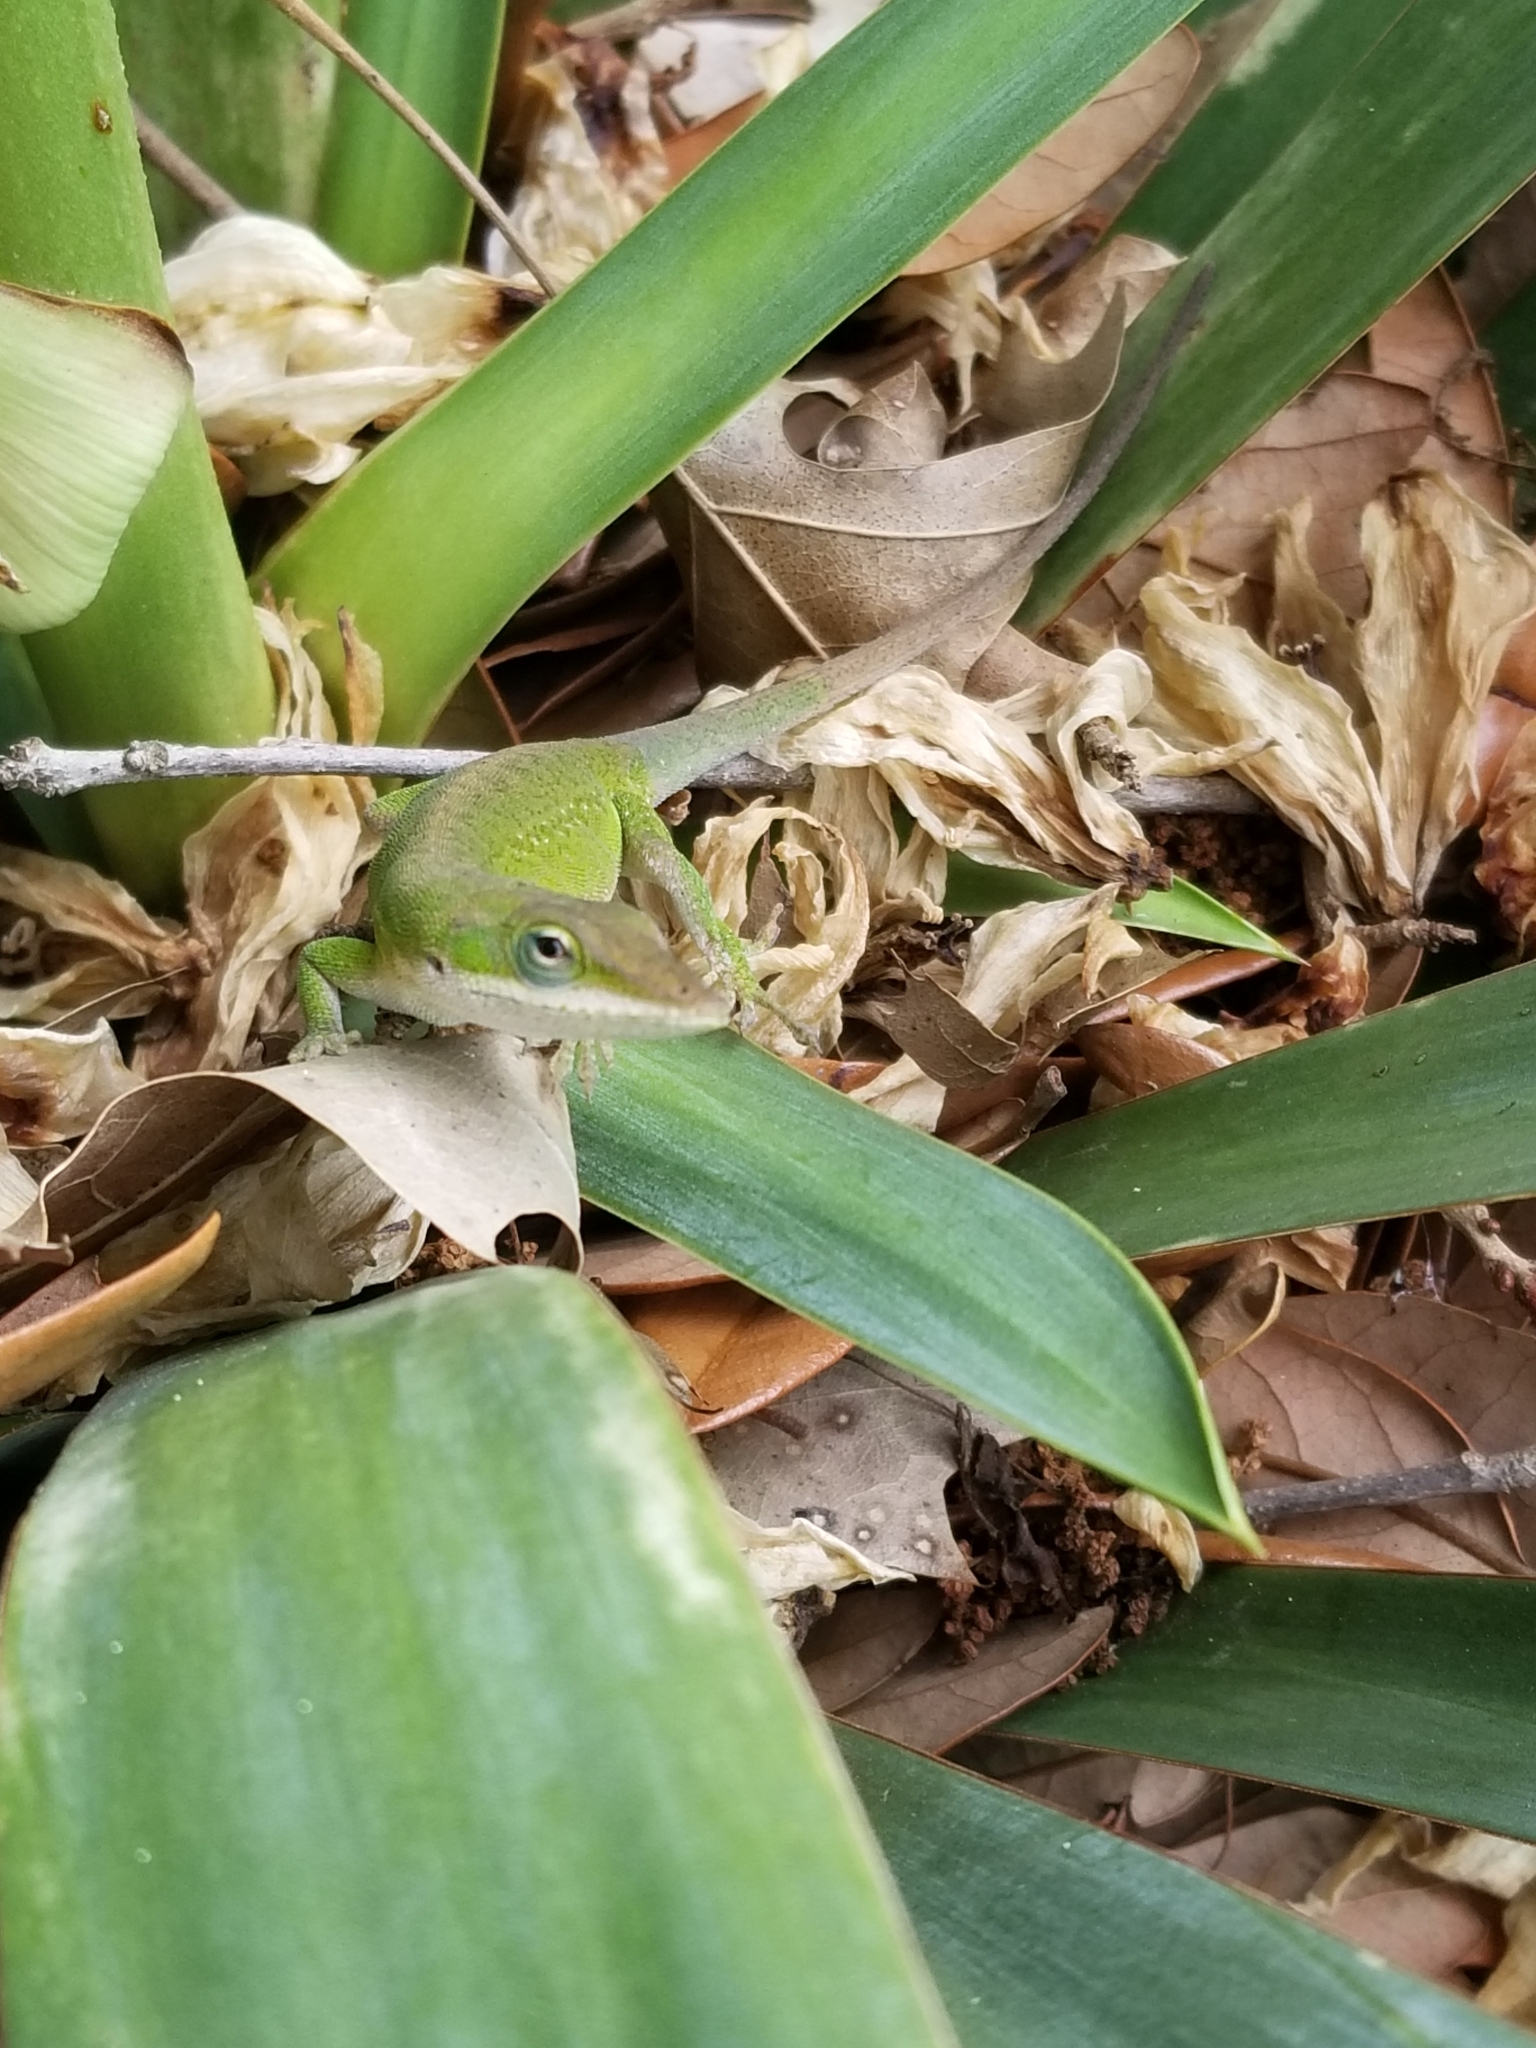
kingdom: Animalia
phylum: Chordata
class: Squamata
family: Dactyloidae
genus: Anolis
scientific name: Anolis carolinensis
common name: Green anole
